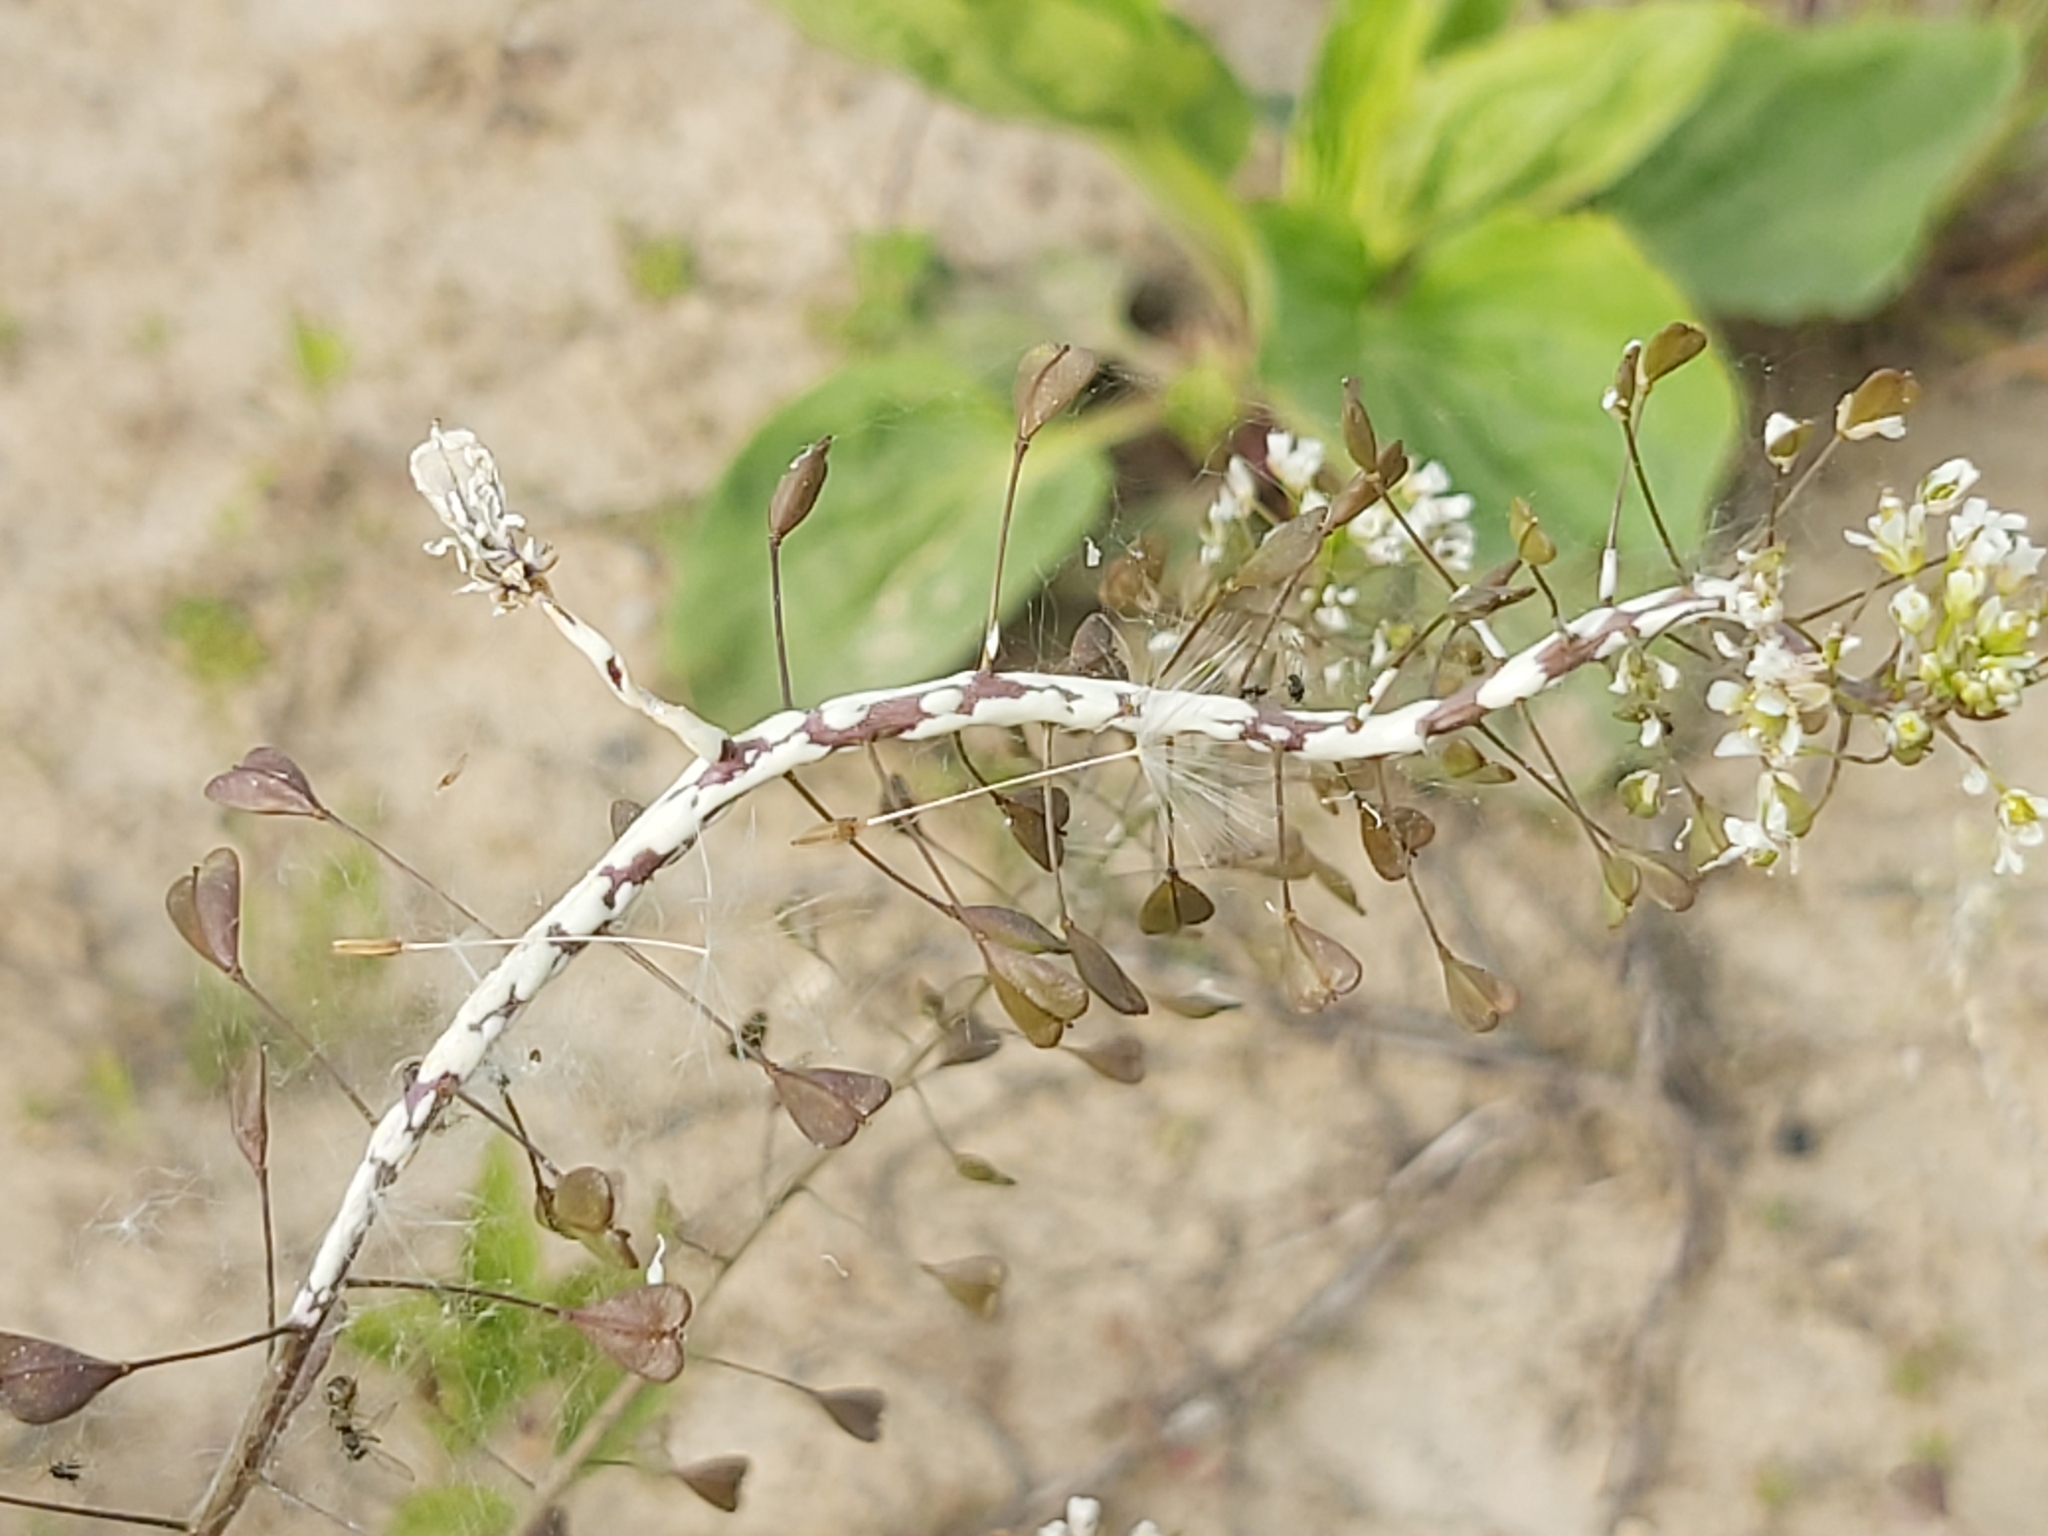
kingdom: Chromista
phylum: Oomycota
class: Peronosporea
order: Albuginales
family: Albuginaceae
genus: Albugo
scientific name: Albugo candida
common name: Crucifer white blister
